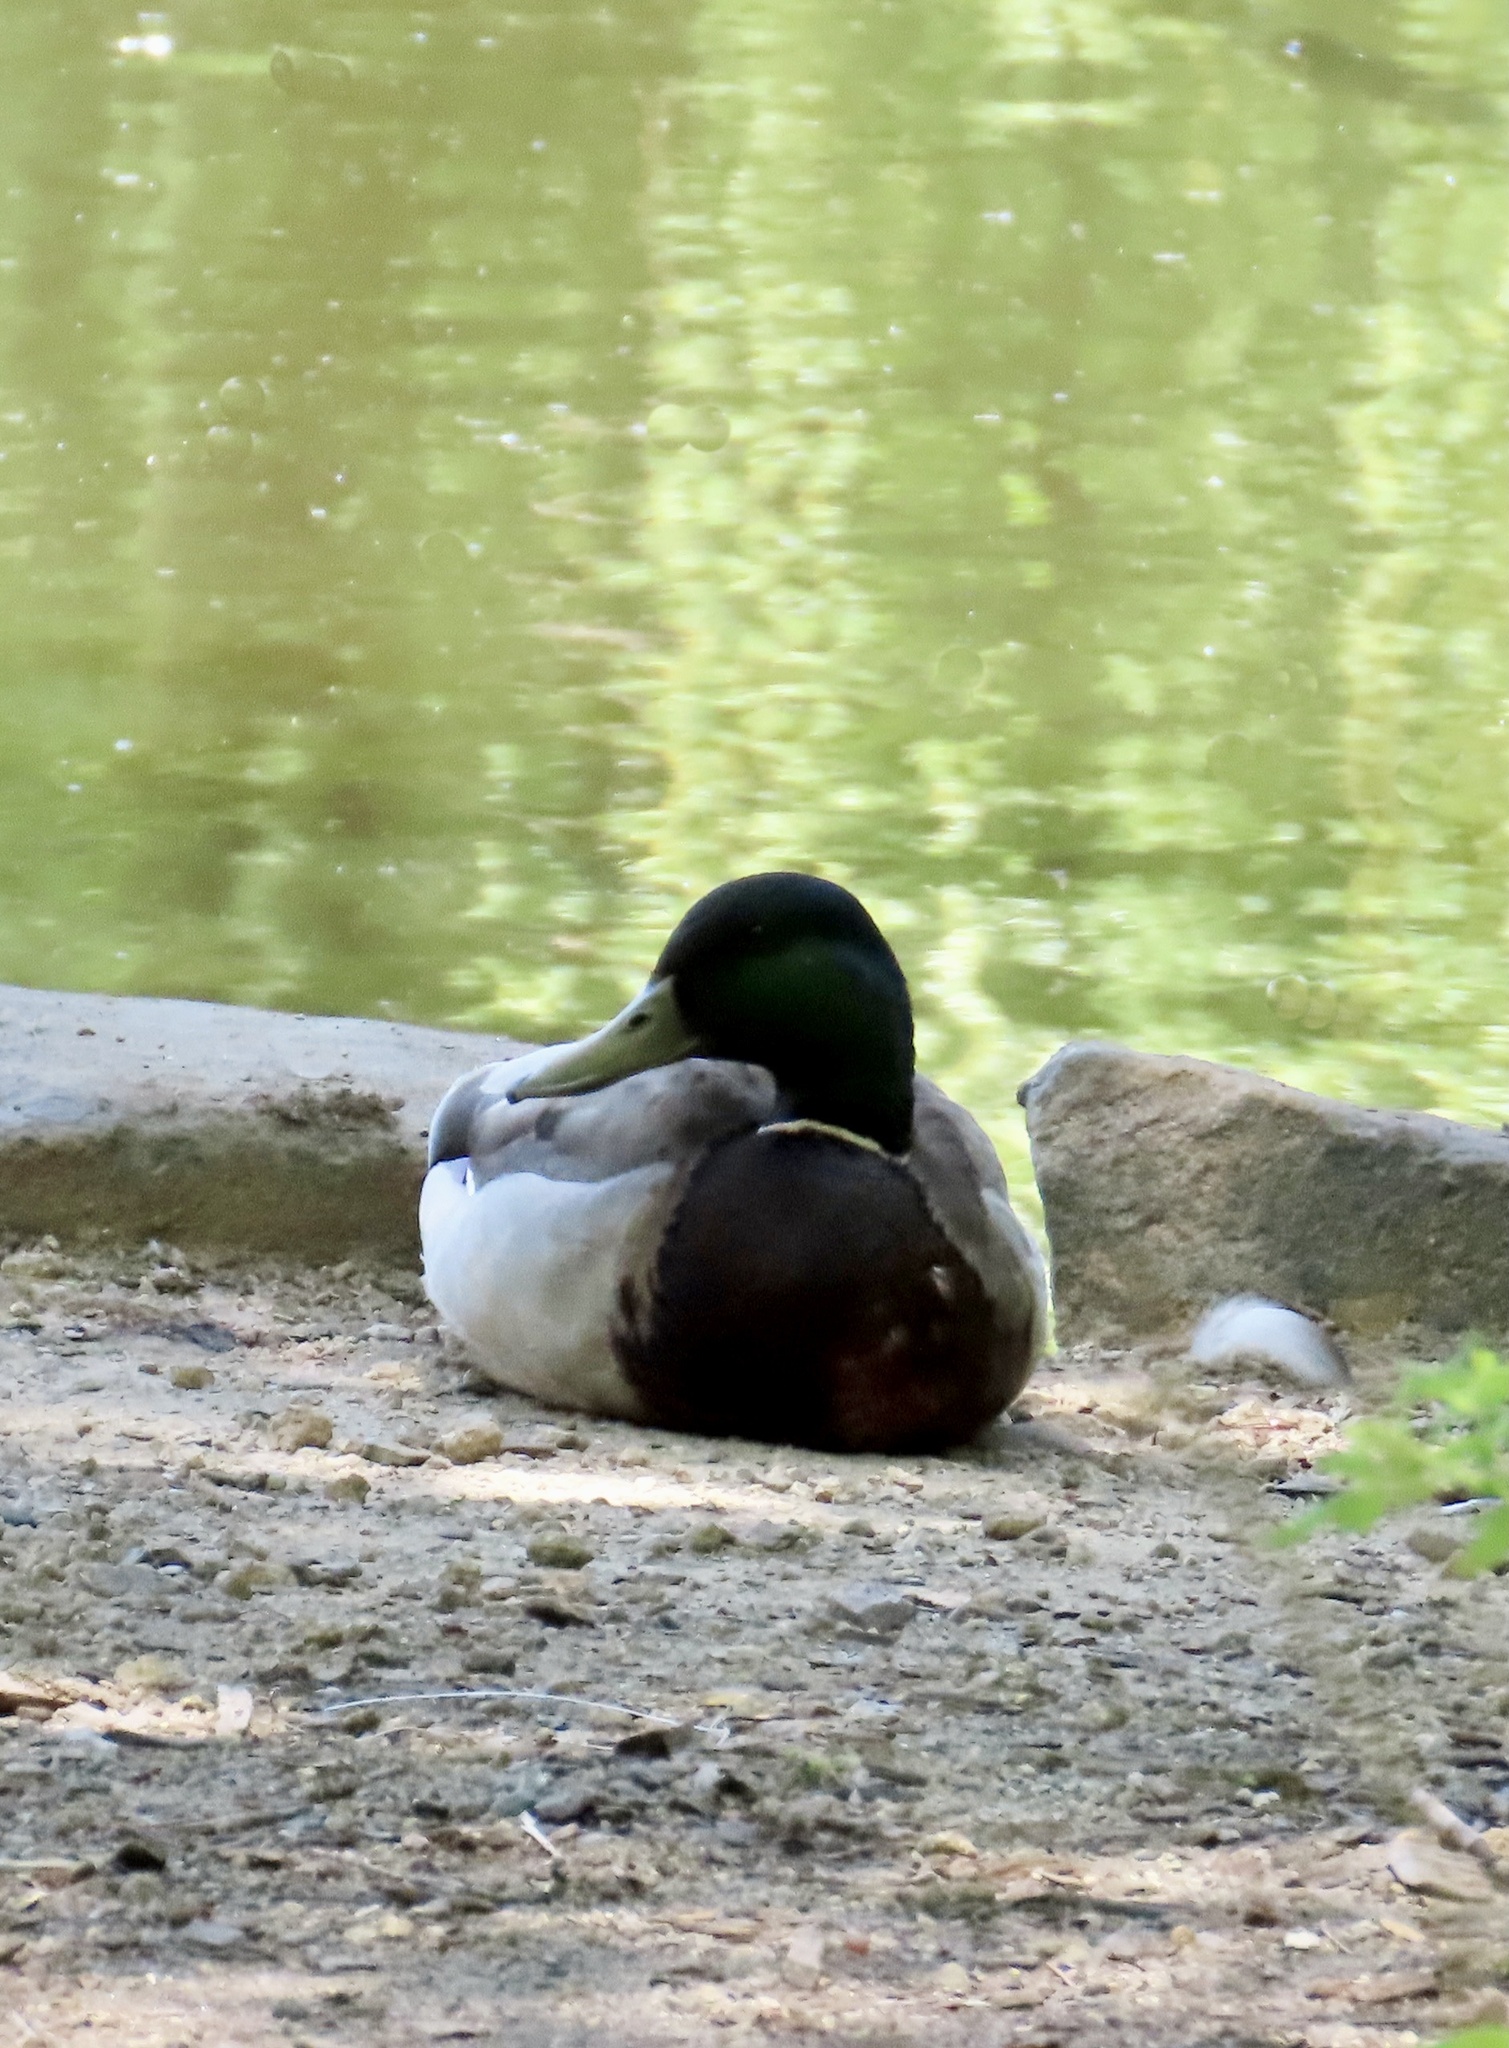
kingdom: Animalia
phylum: Chordata
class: Aves
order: Anseriformes
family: Anatidae
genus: Anas
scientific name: Anas platyrhynchos
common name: Mallard
